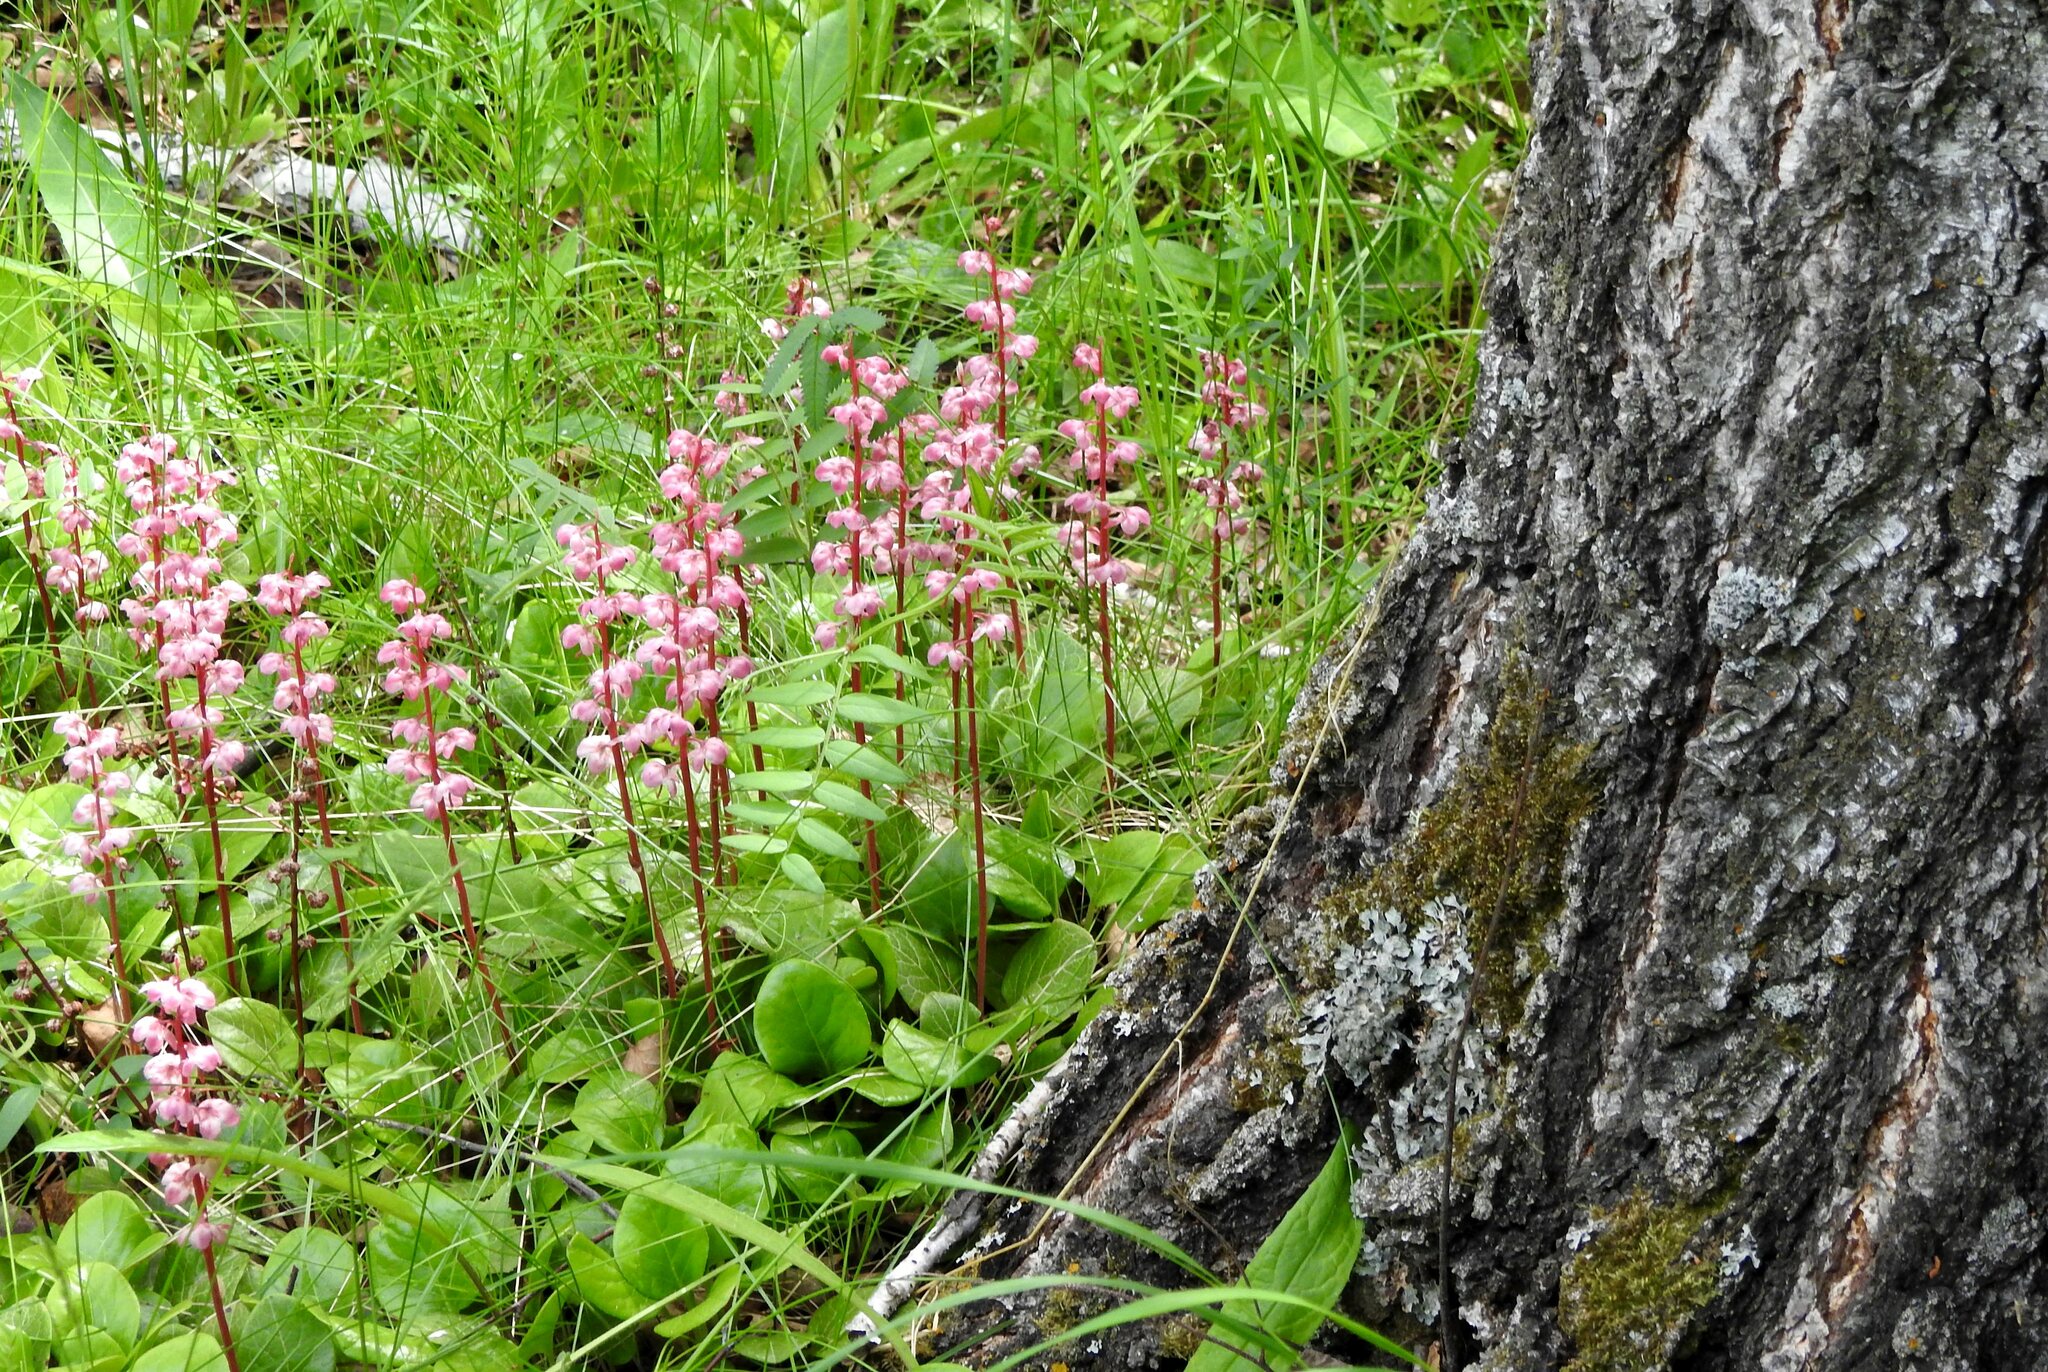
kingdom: Plantae
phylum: Tracheophyta
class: Magnoliopsida
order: Ericales
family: Ericaceae
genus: Pyrola
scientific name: Pyrola asarifolia
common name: Bog wintergreen
